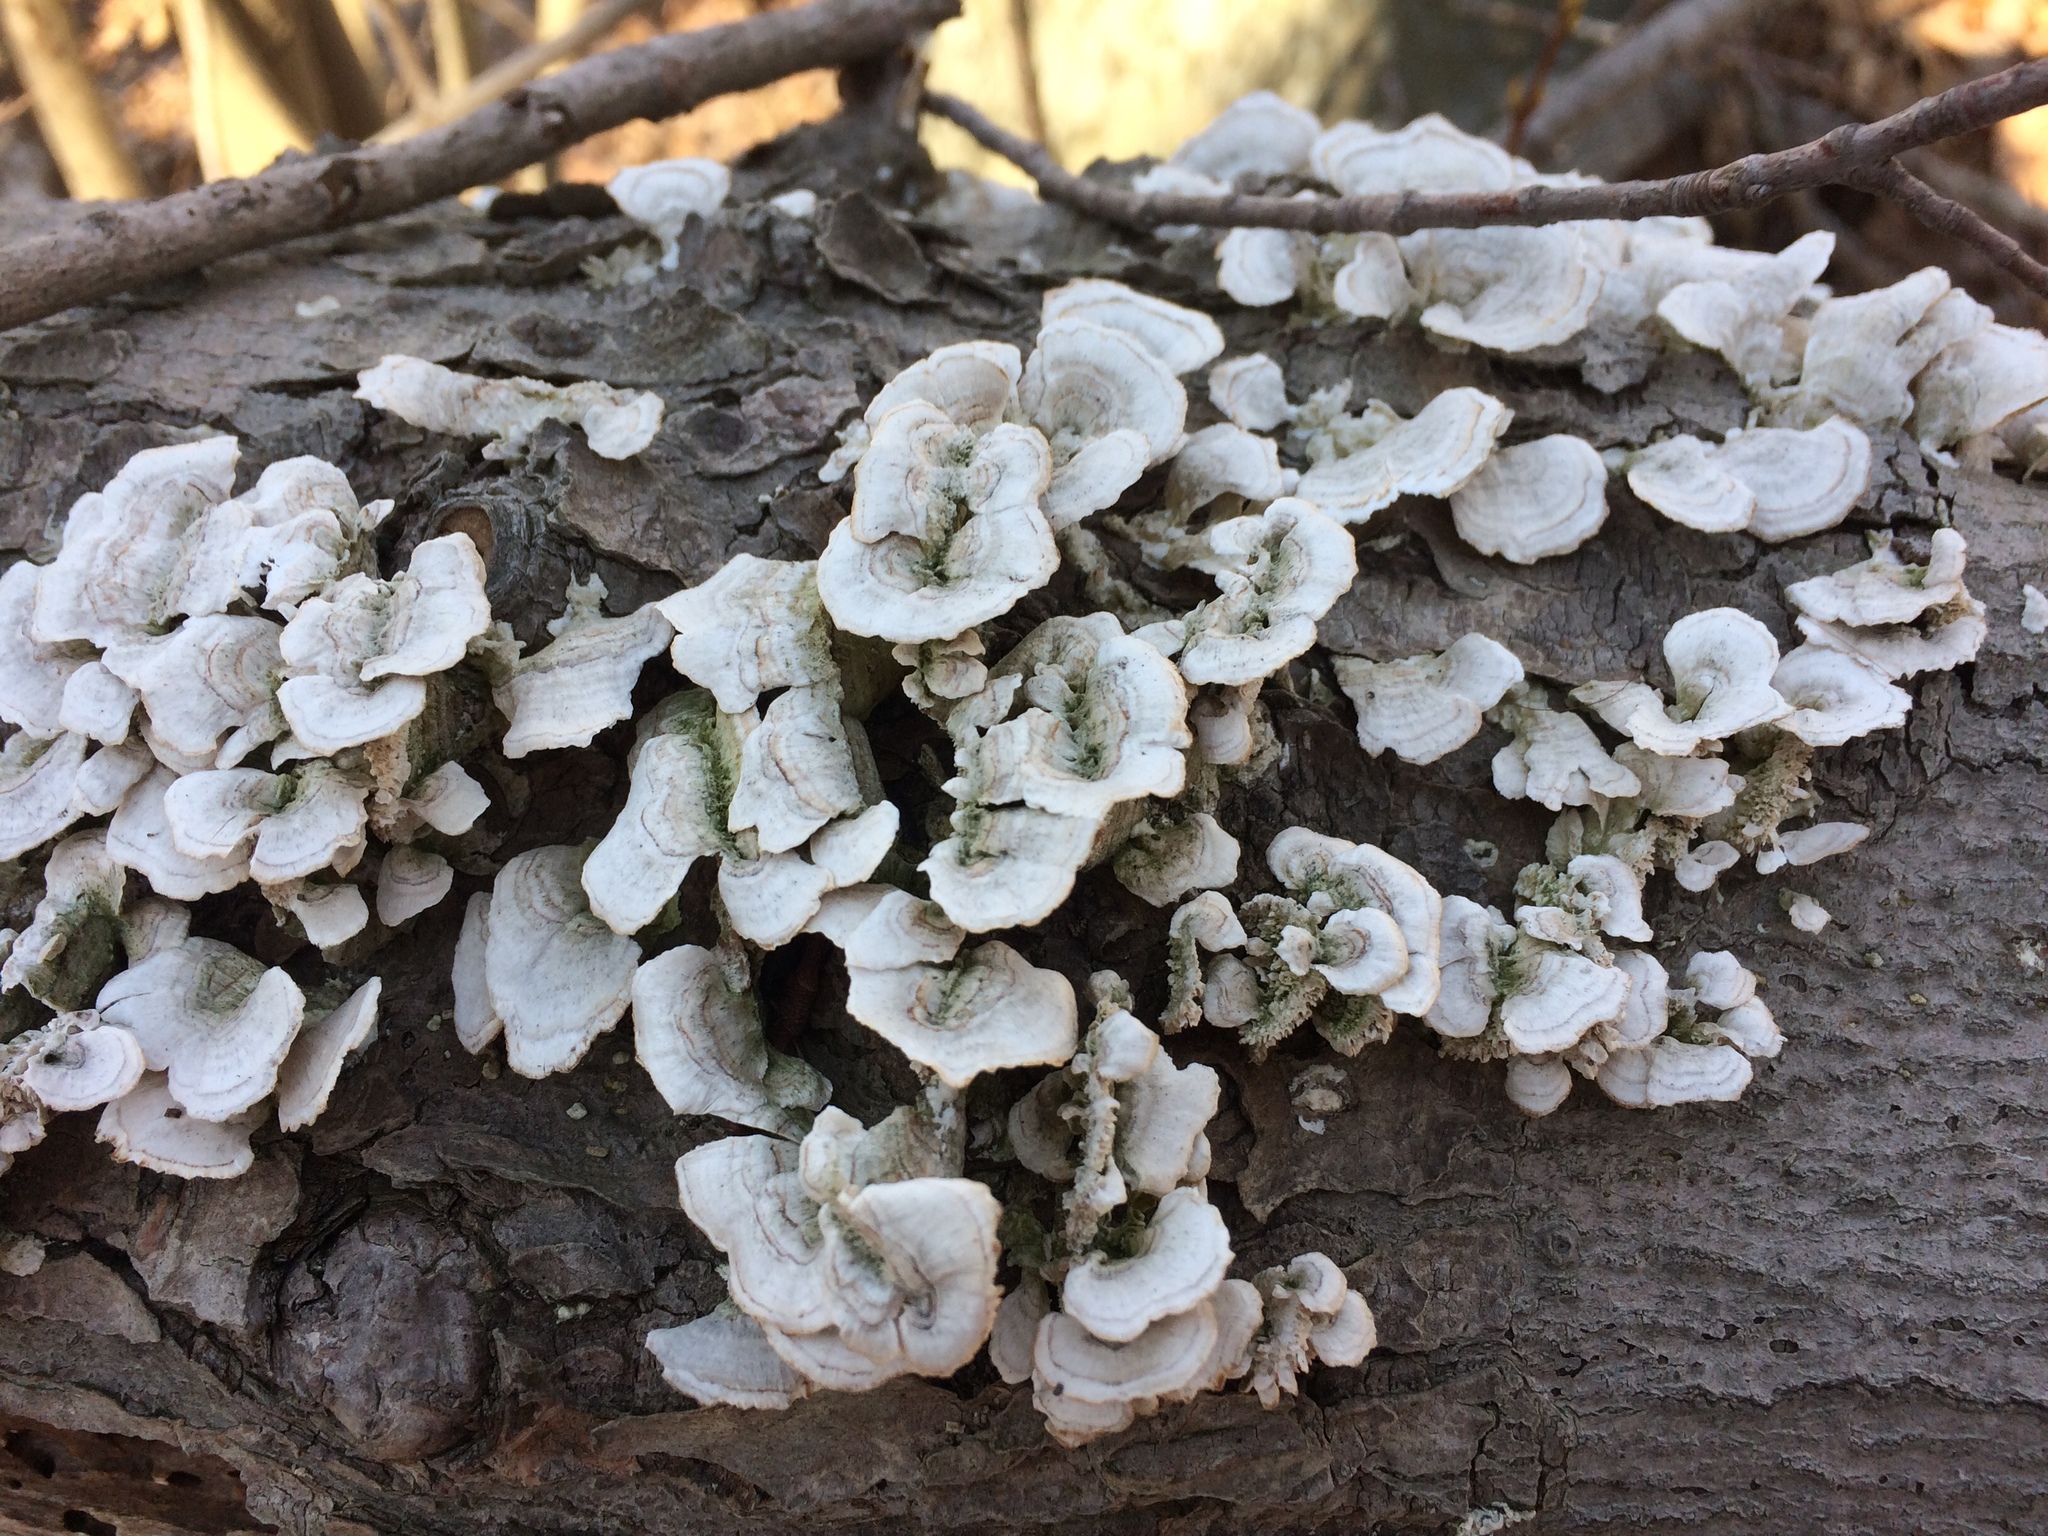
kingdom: Fungi
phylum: Basidiomycota
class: Agaricomycetes
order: Polyporales
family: Polyporaceae
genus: Trametes
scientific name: Trametes versicolor
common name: Turkeytail
